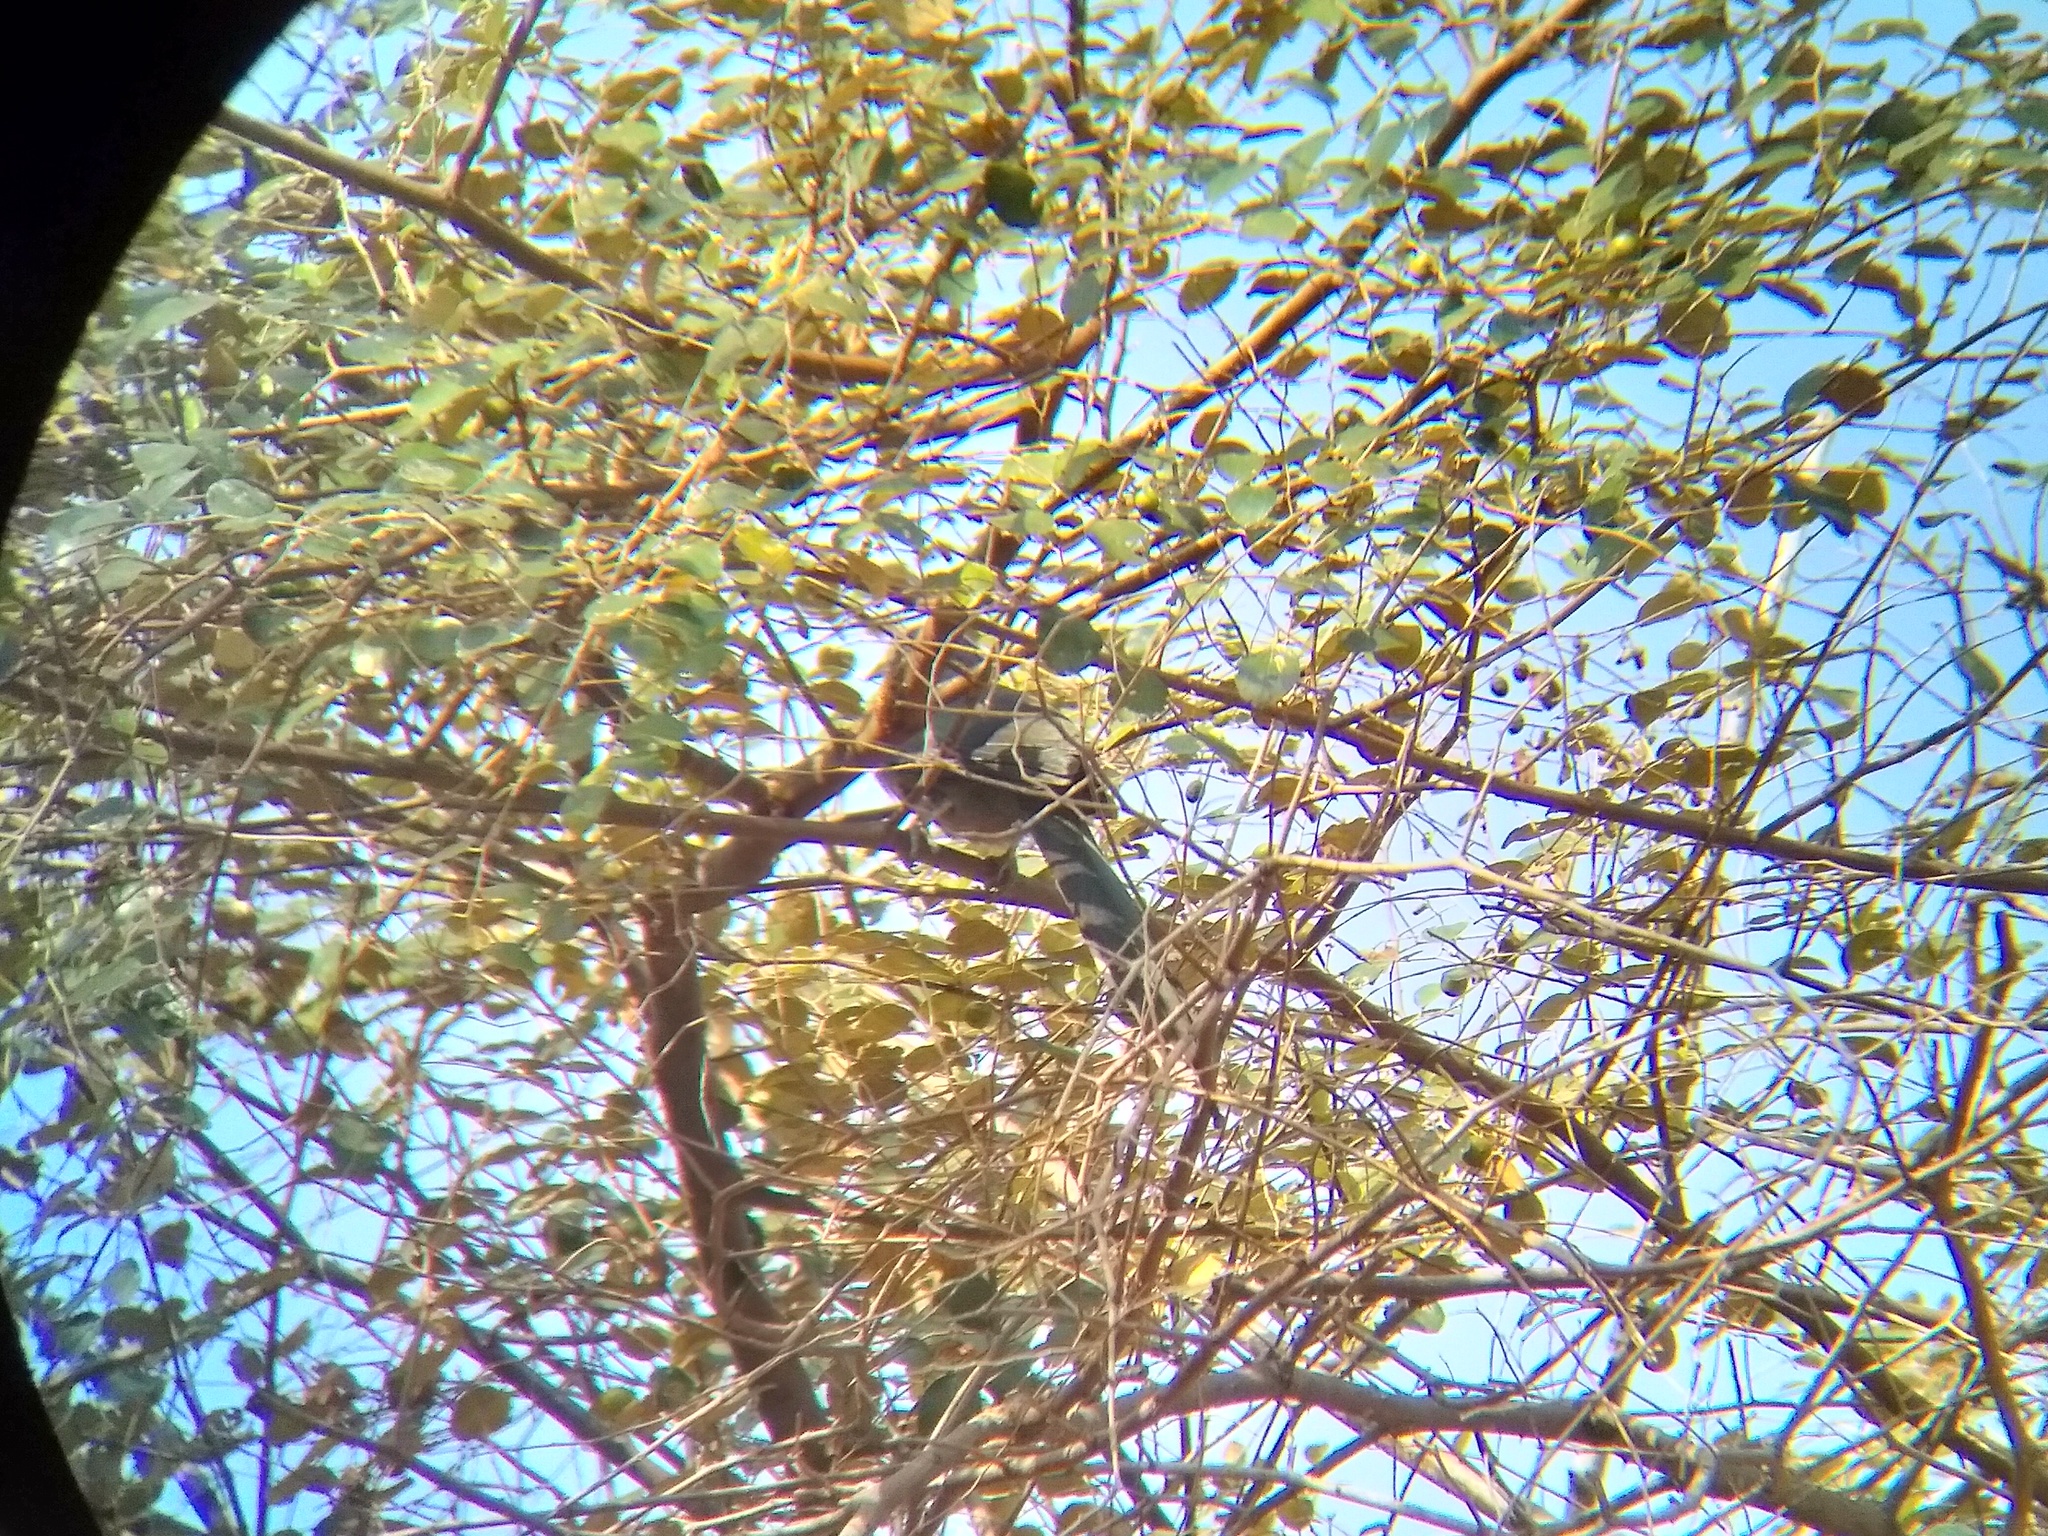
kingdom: Animalia
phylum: Chordata
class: Aves
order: Cuculiformes
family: Cuculidae
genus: Rhopodytes
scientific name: Rhopodytes viridirostris
